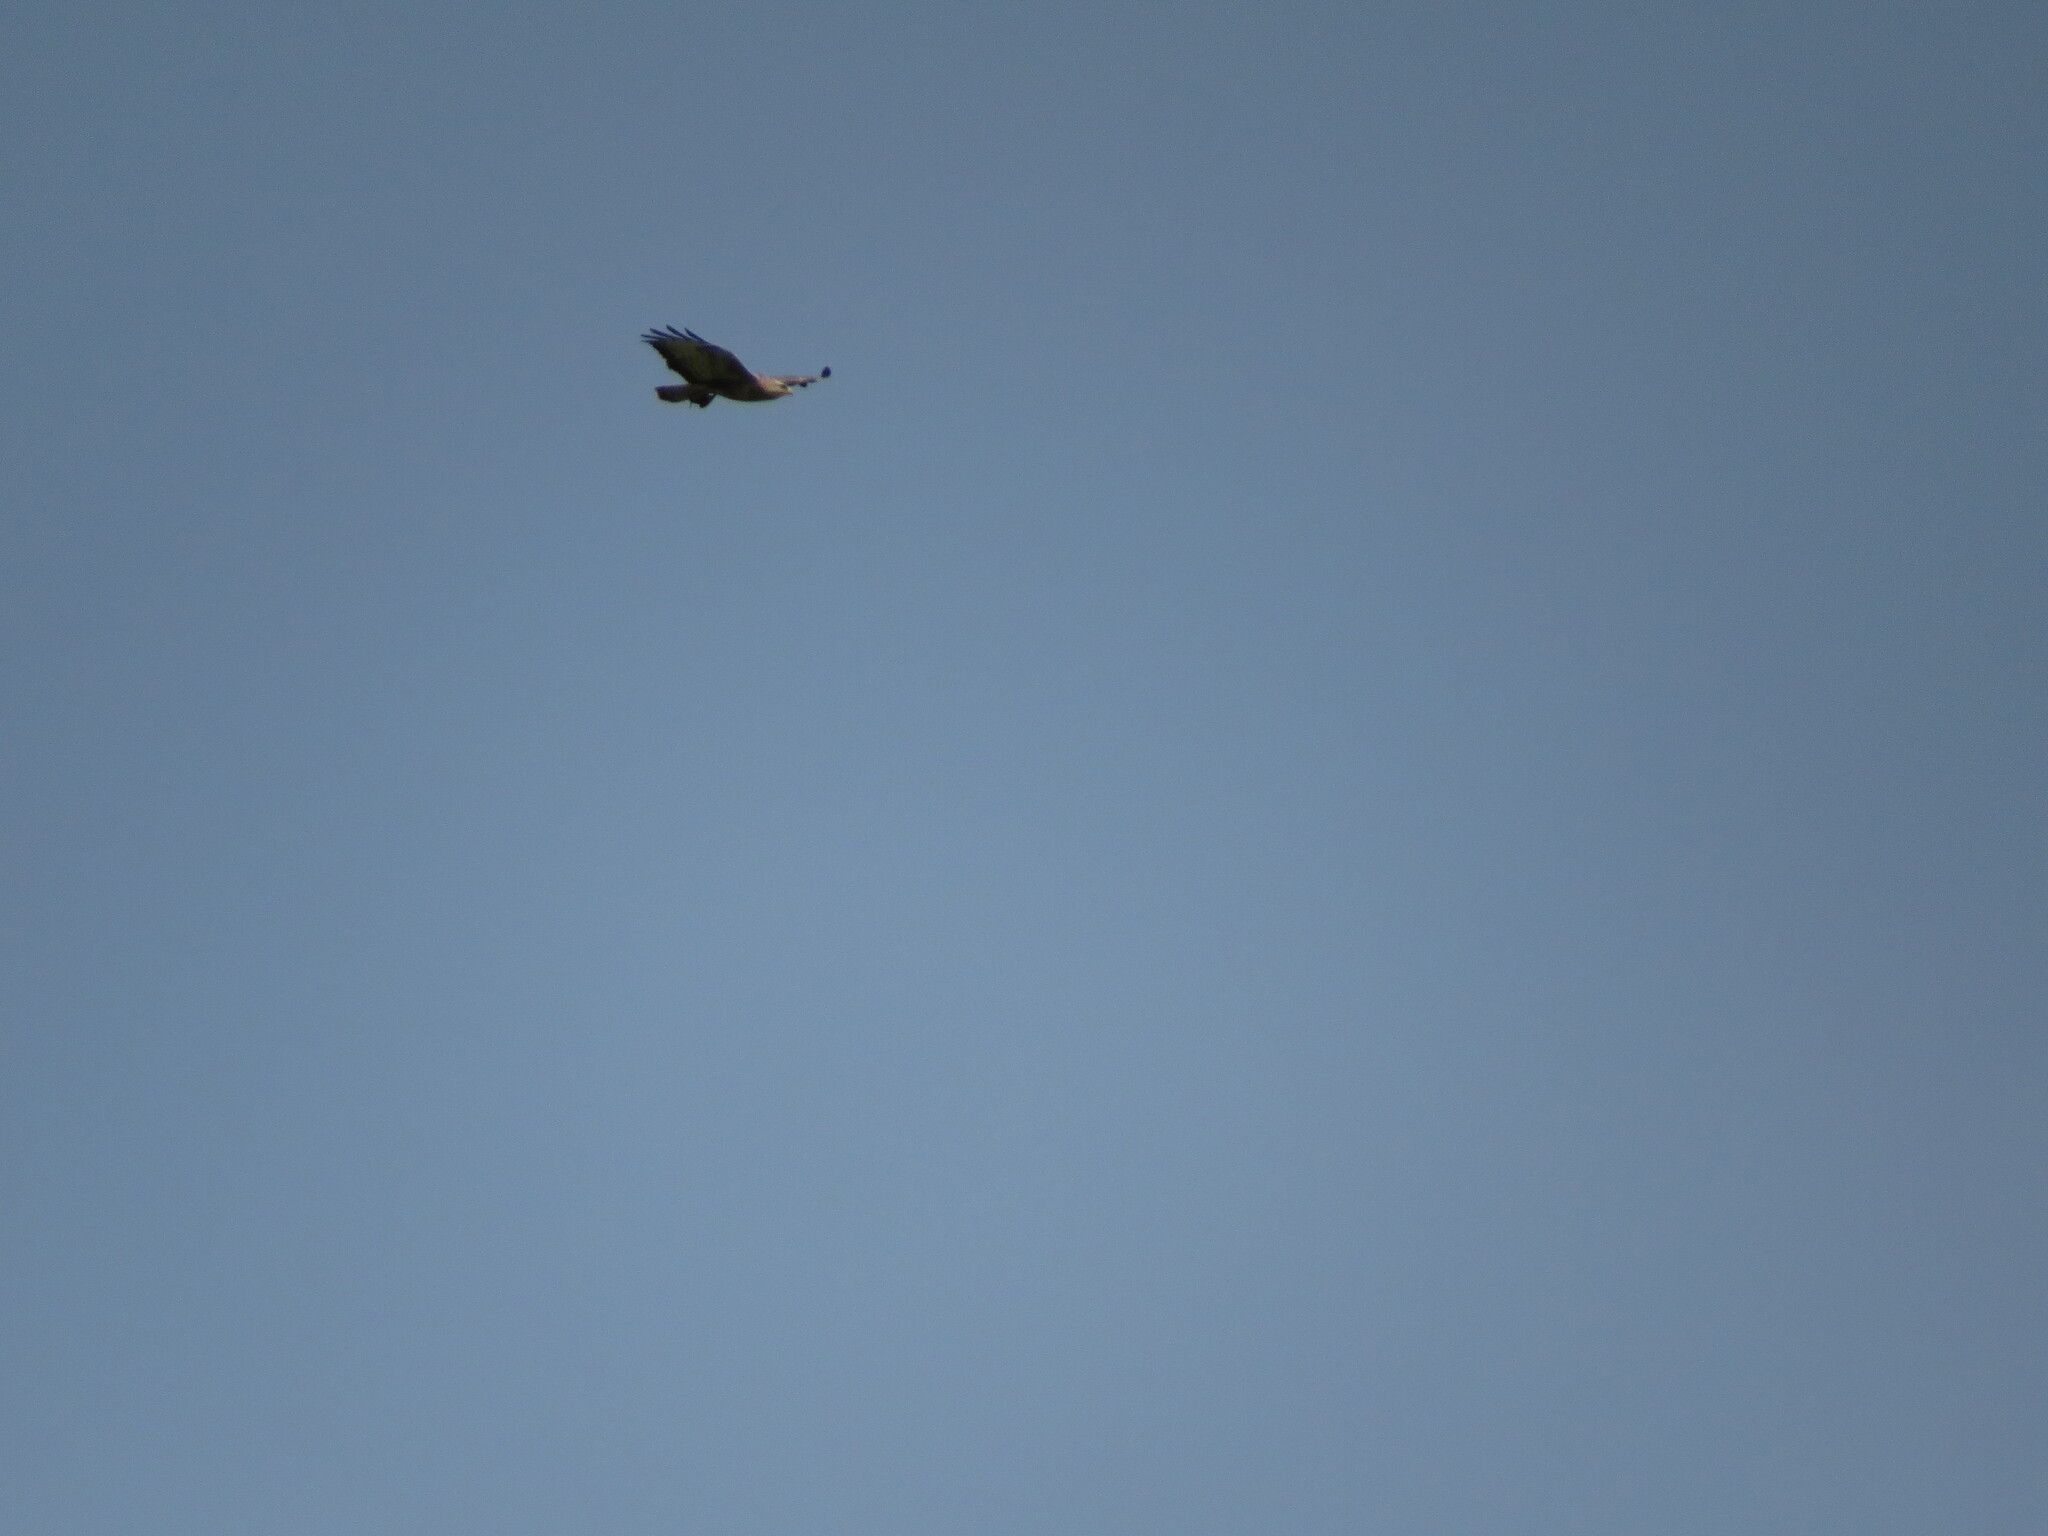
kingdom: Animalia
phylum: Chordata
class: Aves
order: Accipitriformes
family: Accipitridae
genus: Buteo
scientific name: Buteo buteo
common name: Common buzzard
